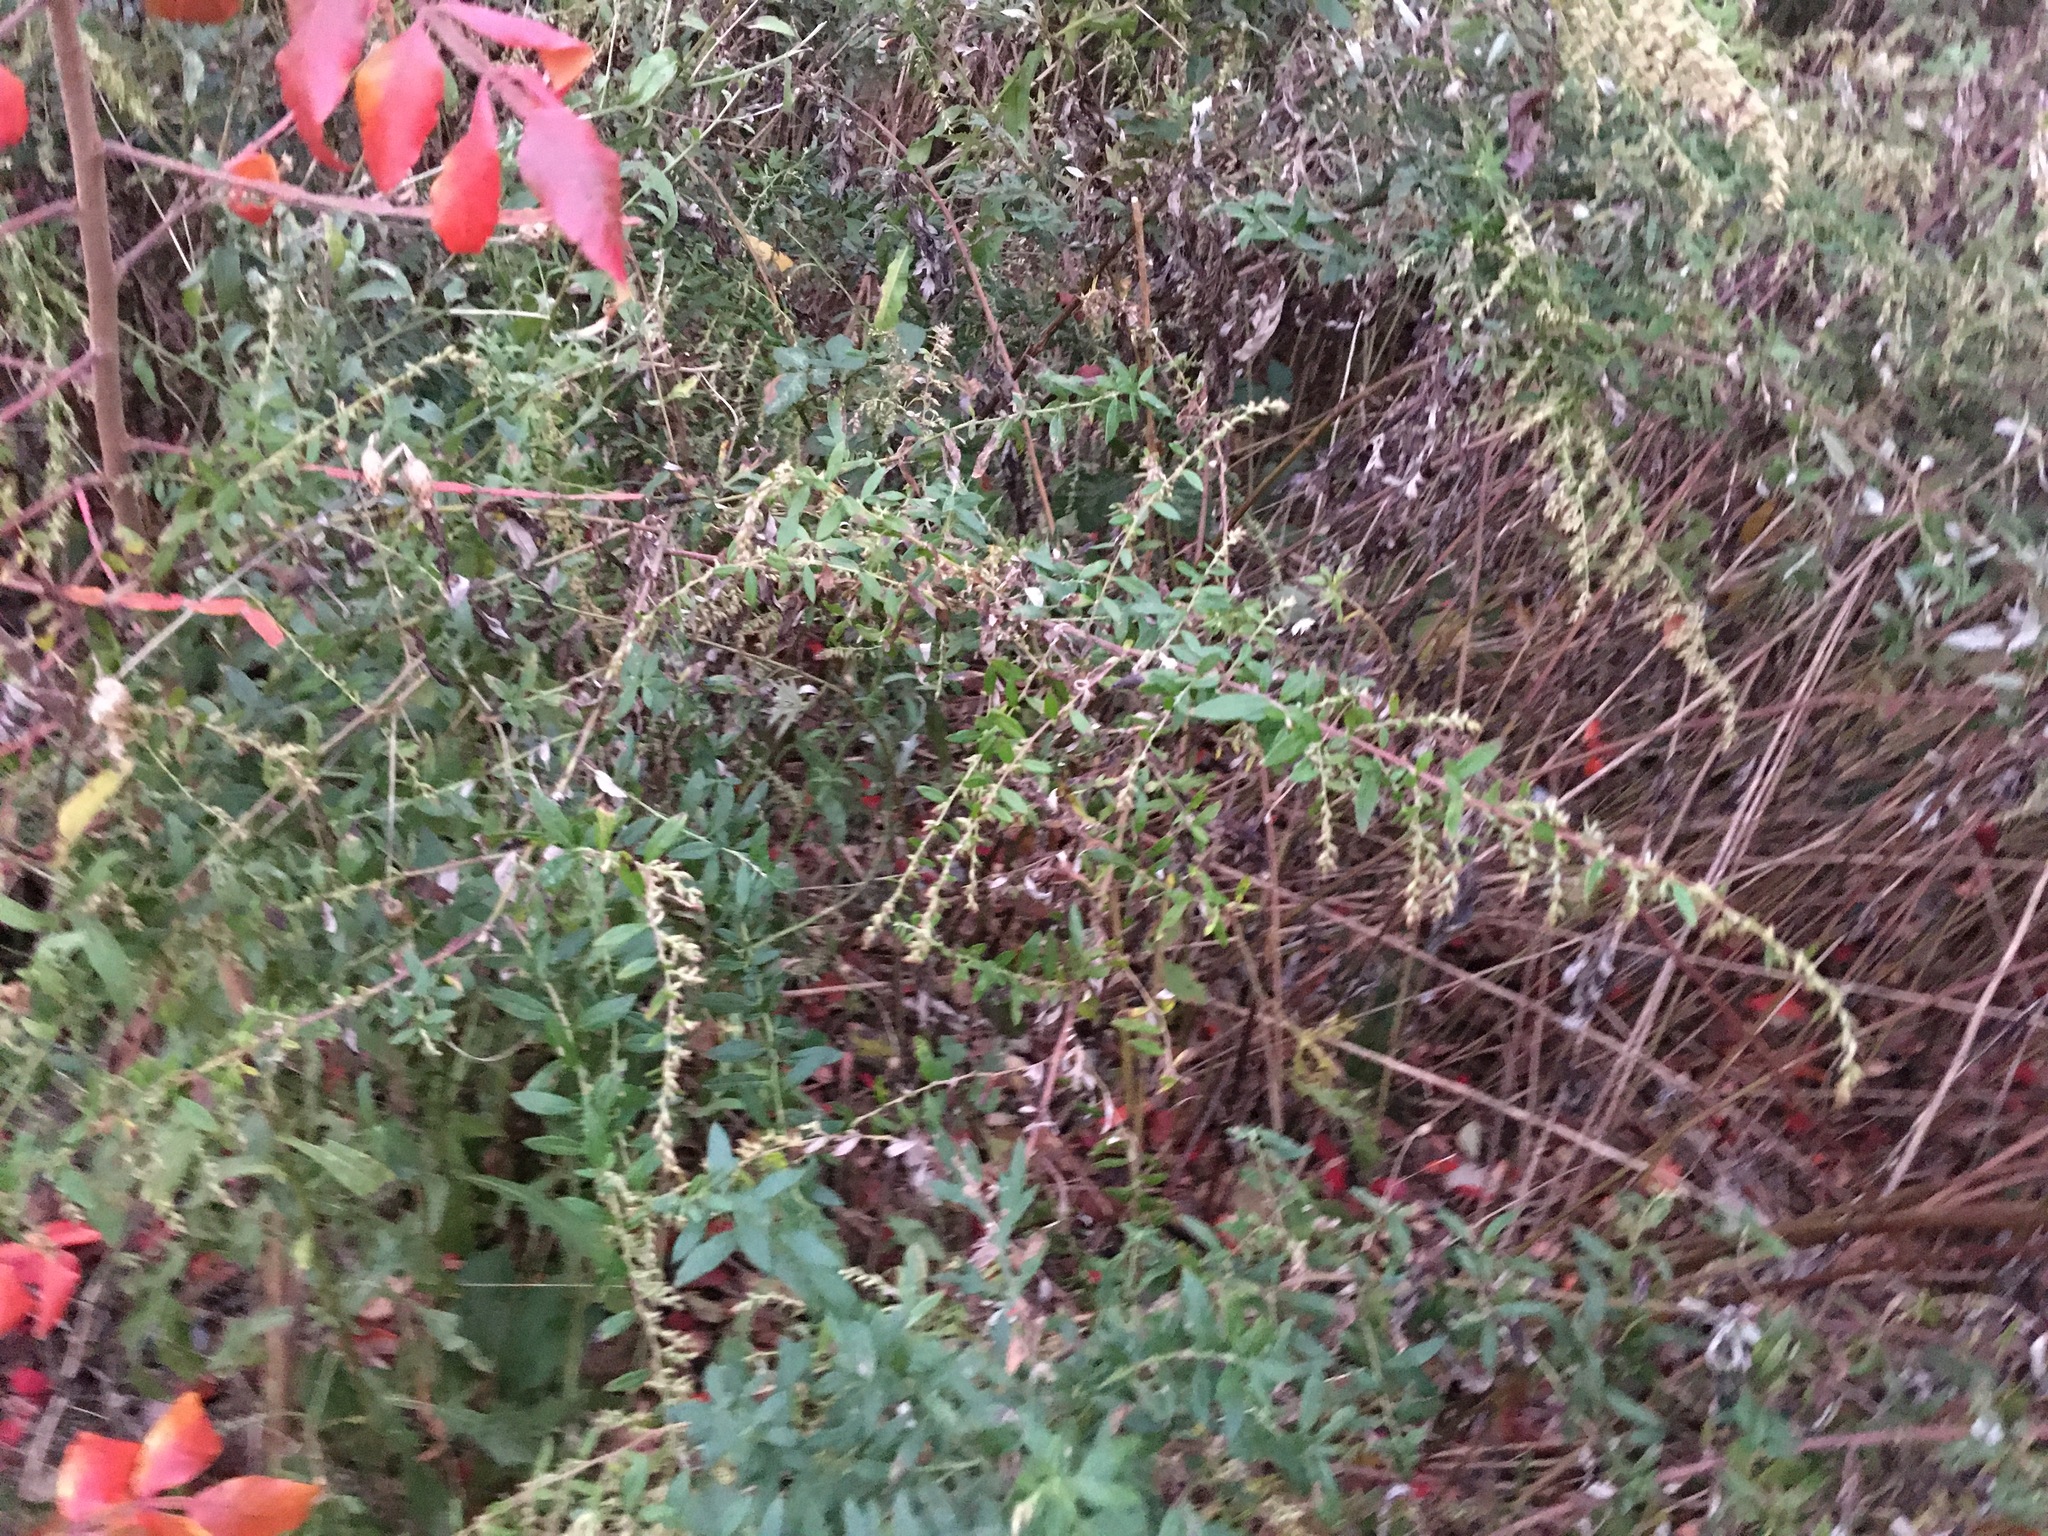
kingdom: Plantae
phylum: Tracheophyta
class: Magnoliopsida
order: Asterales
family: Asteraceae
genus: Artemisia
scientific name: Artemisia vulgaris
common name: Mugwort
